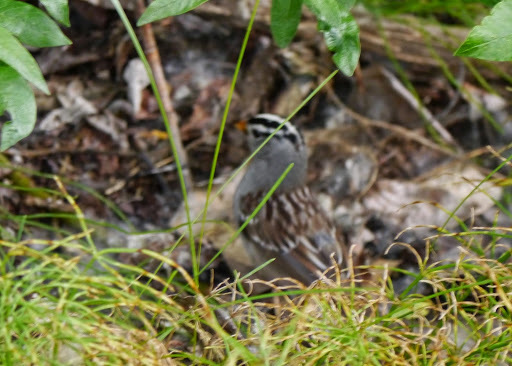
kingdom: Animalia
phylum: Chordata
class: Aves
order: Passeriformes
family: Passerellidae
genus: Zonotrichia
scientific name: Zonotrichia leucophrys
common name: White-crowned sparrow
